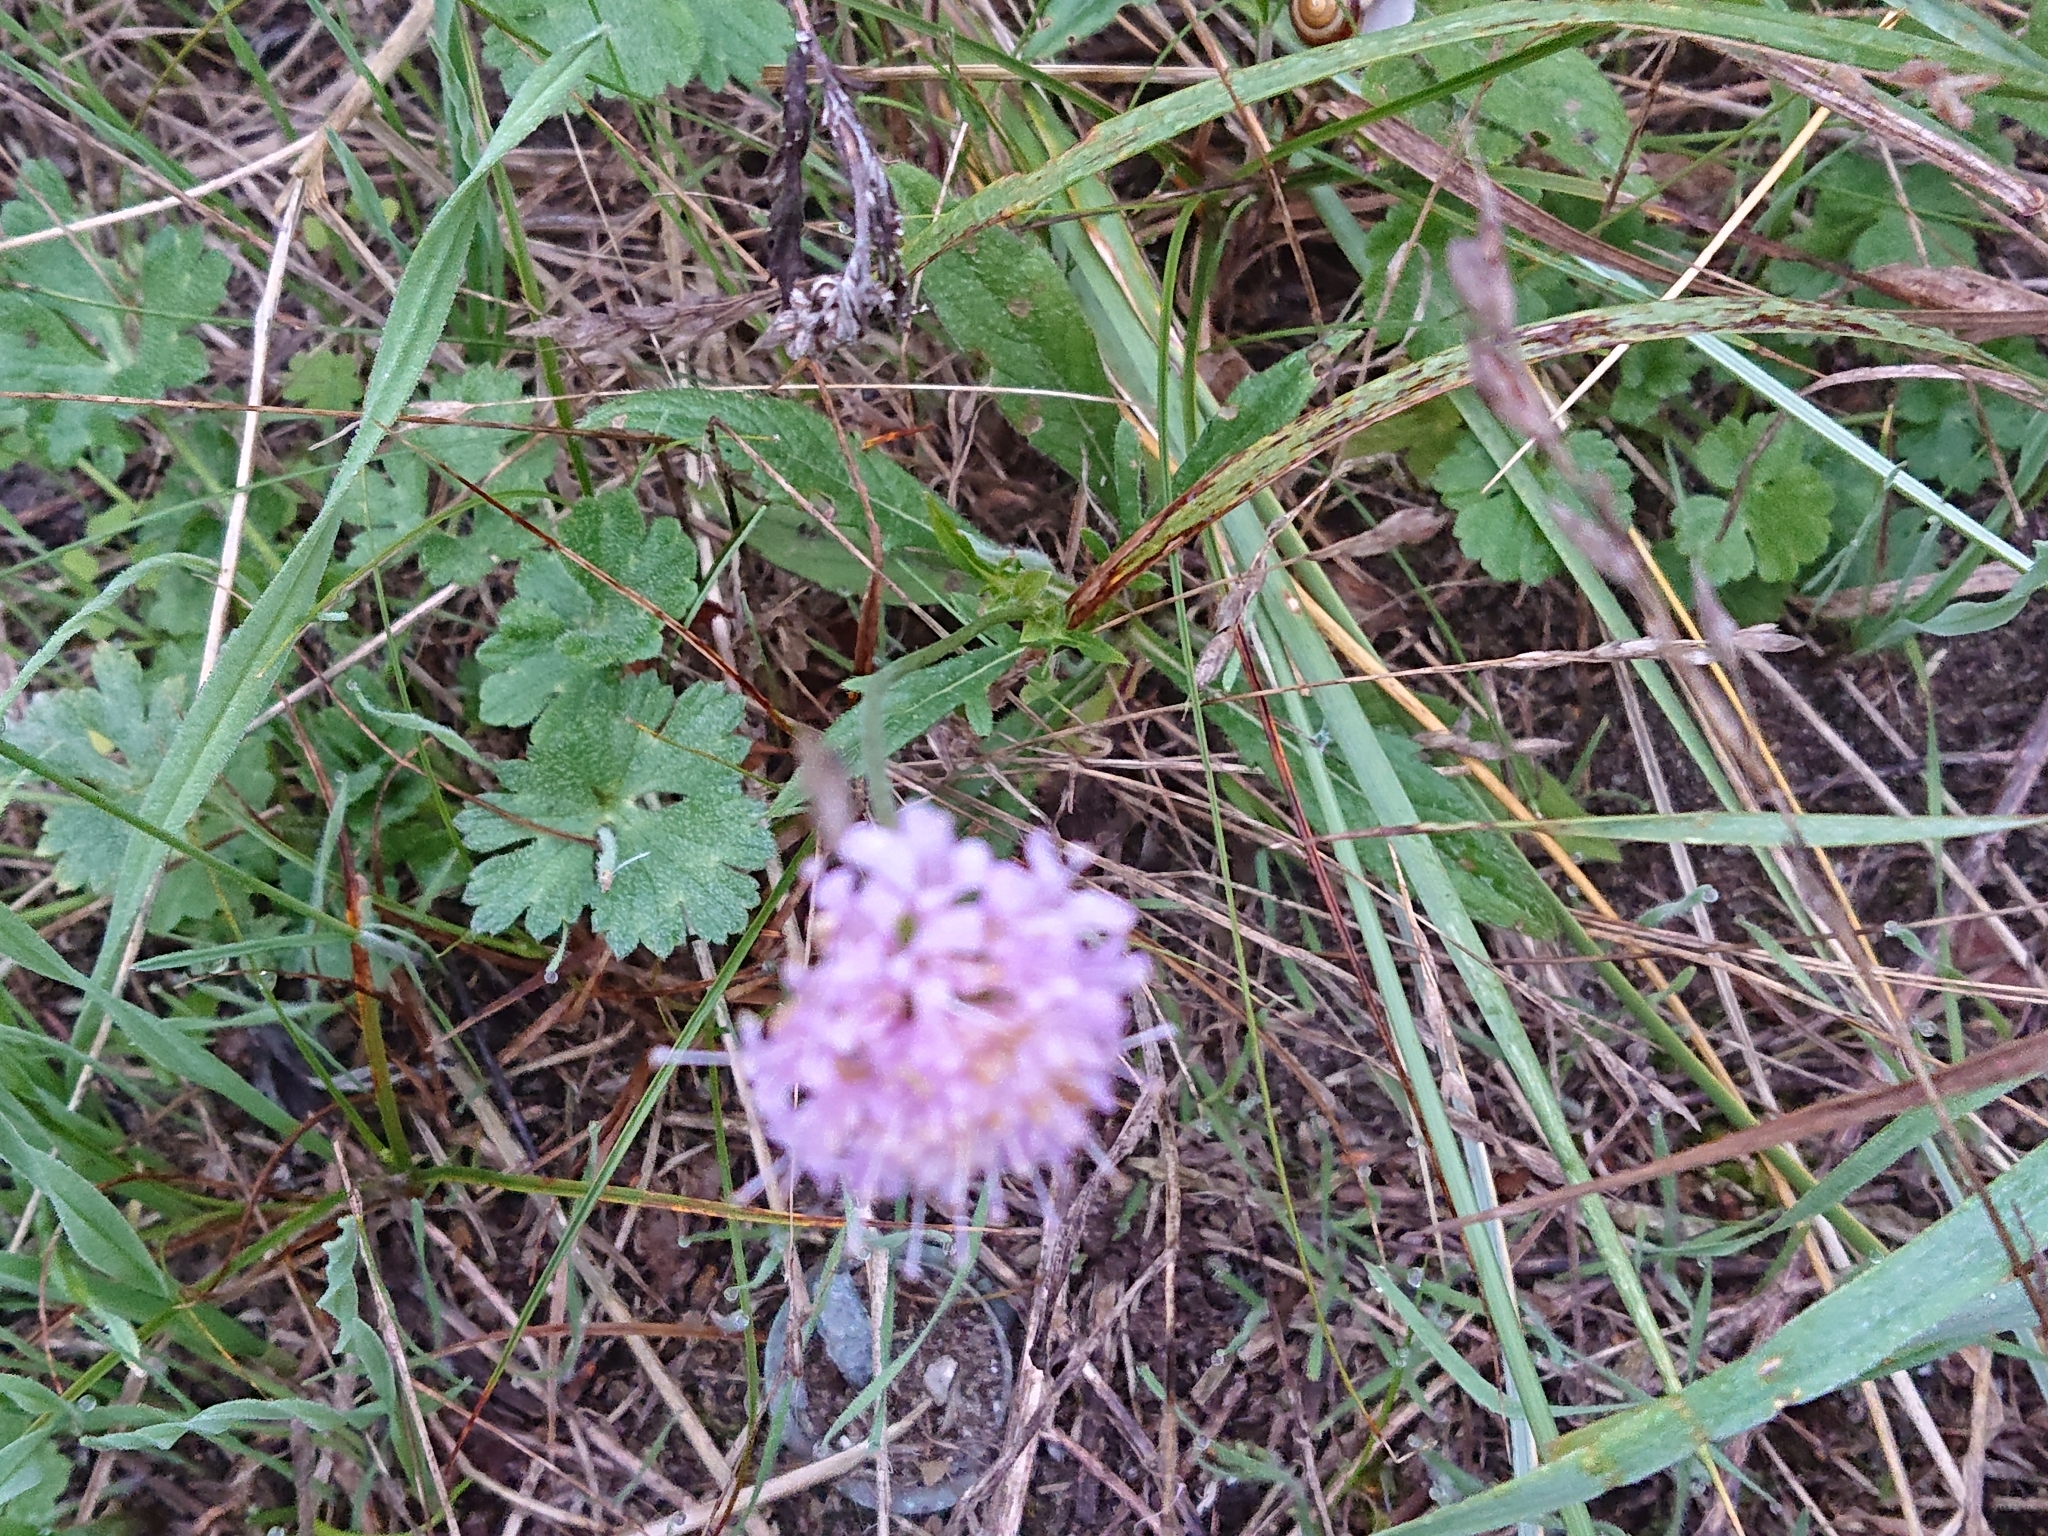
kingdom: Plantae
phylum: Tracheophyta
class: Magnoliopsida
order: Dipsacales
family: Caprifoliaceae
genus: Knautia
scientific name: Knautia arvensis
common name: Field scabiosa
